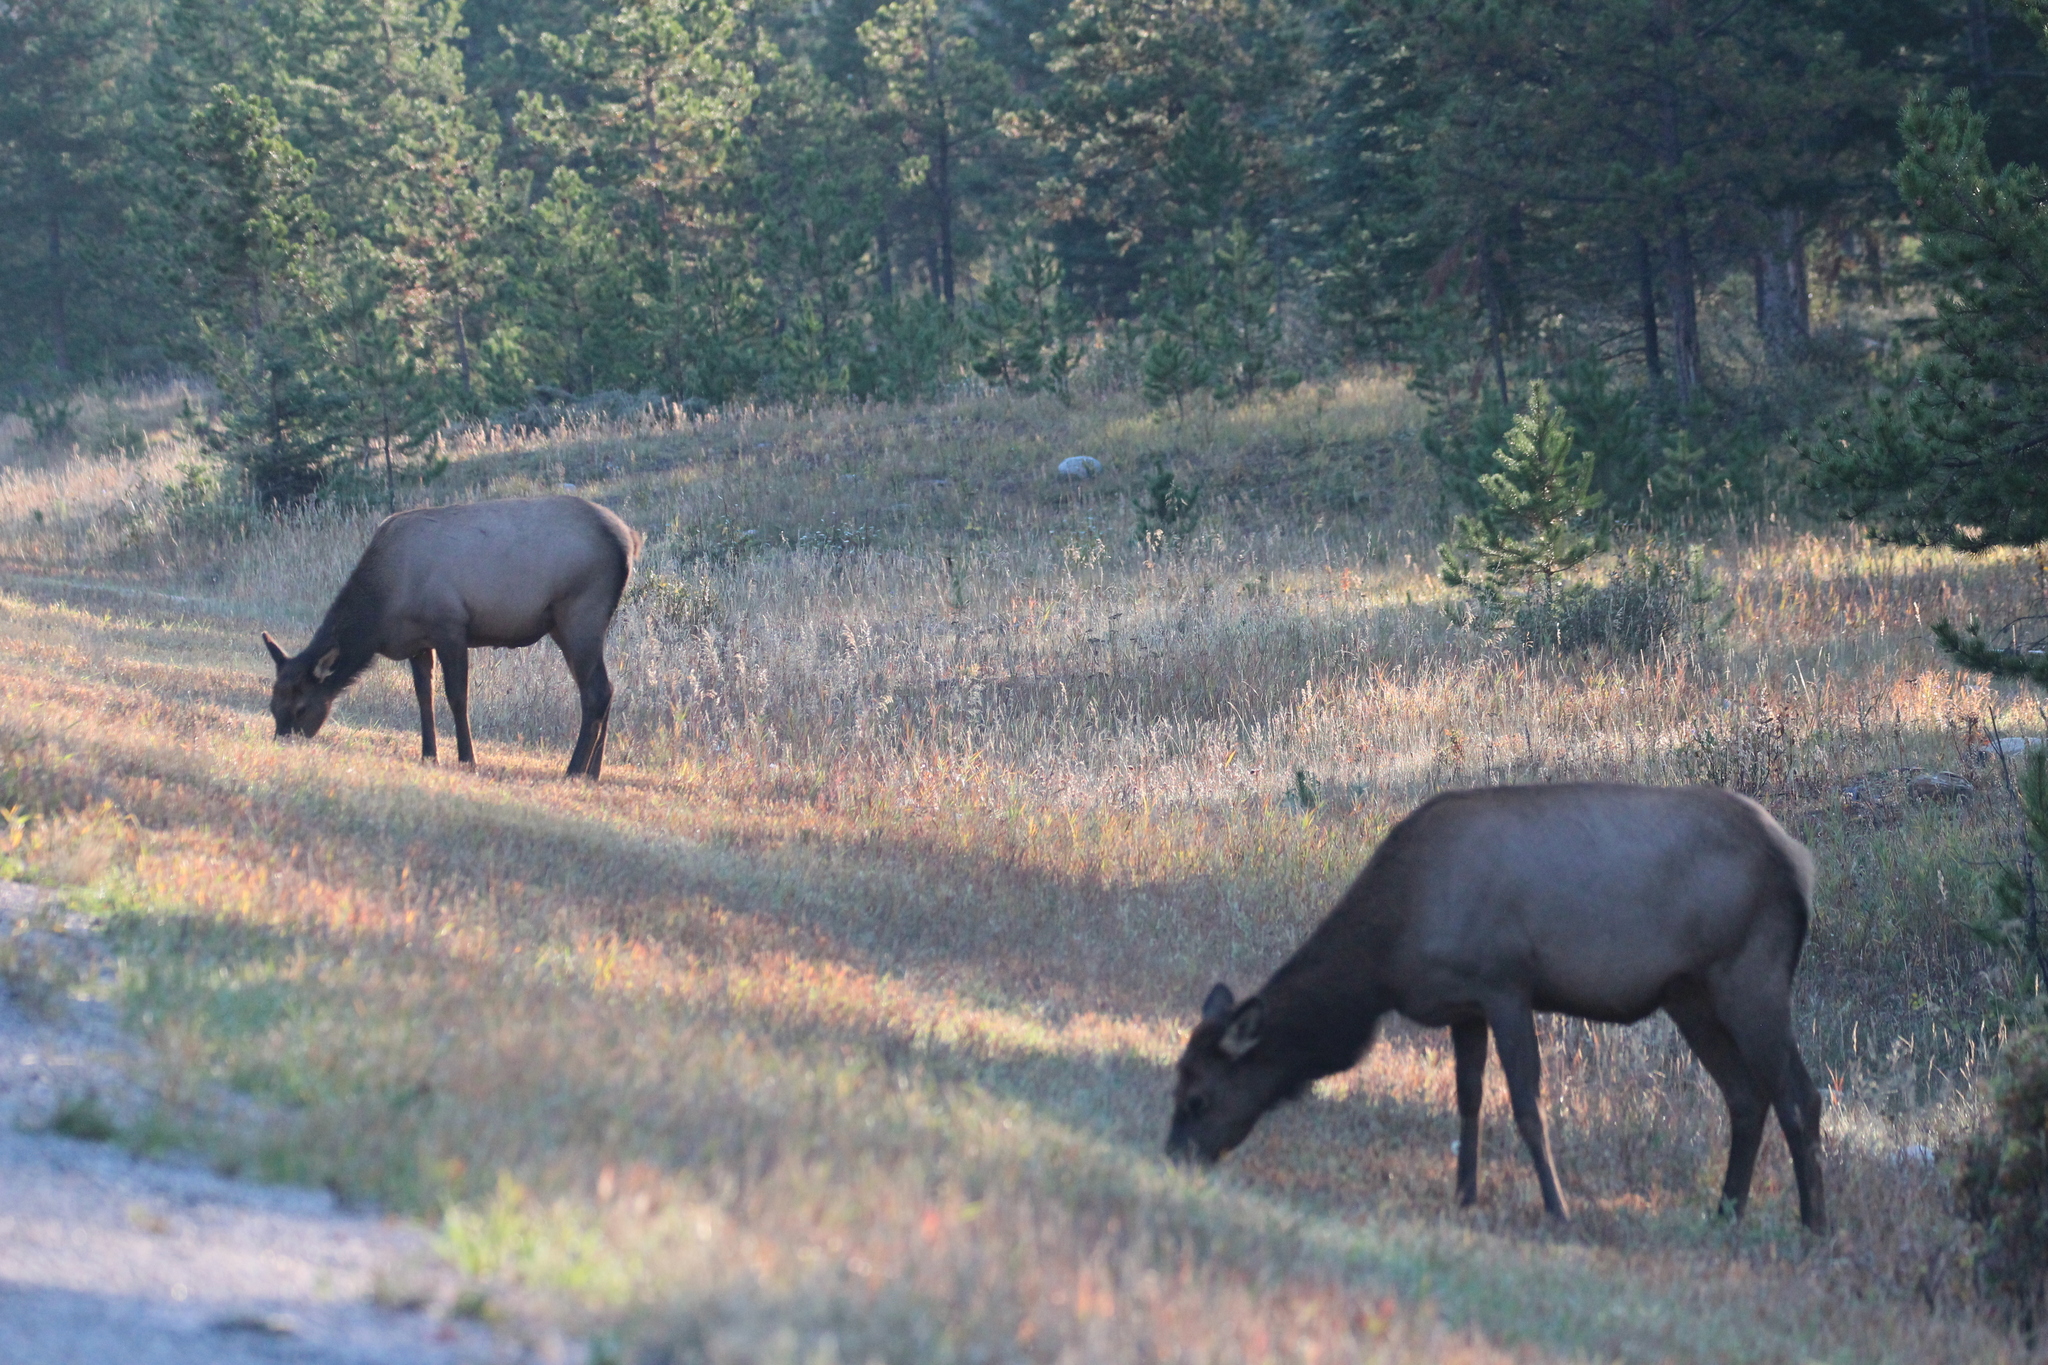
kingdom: Animalia
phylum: Chordata
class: Mammalia
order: Artiodactyla
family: Cervidae
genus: Cervus
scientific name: Cervus elaphus
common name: Red deer
